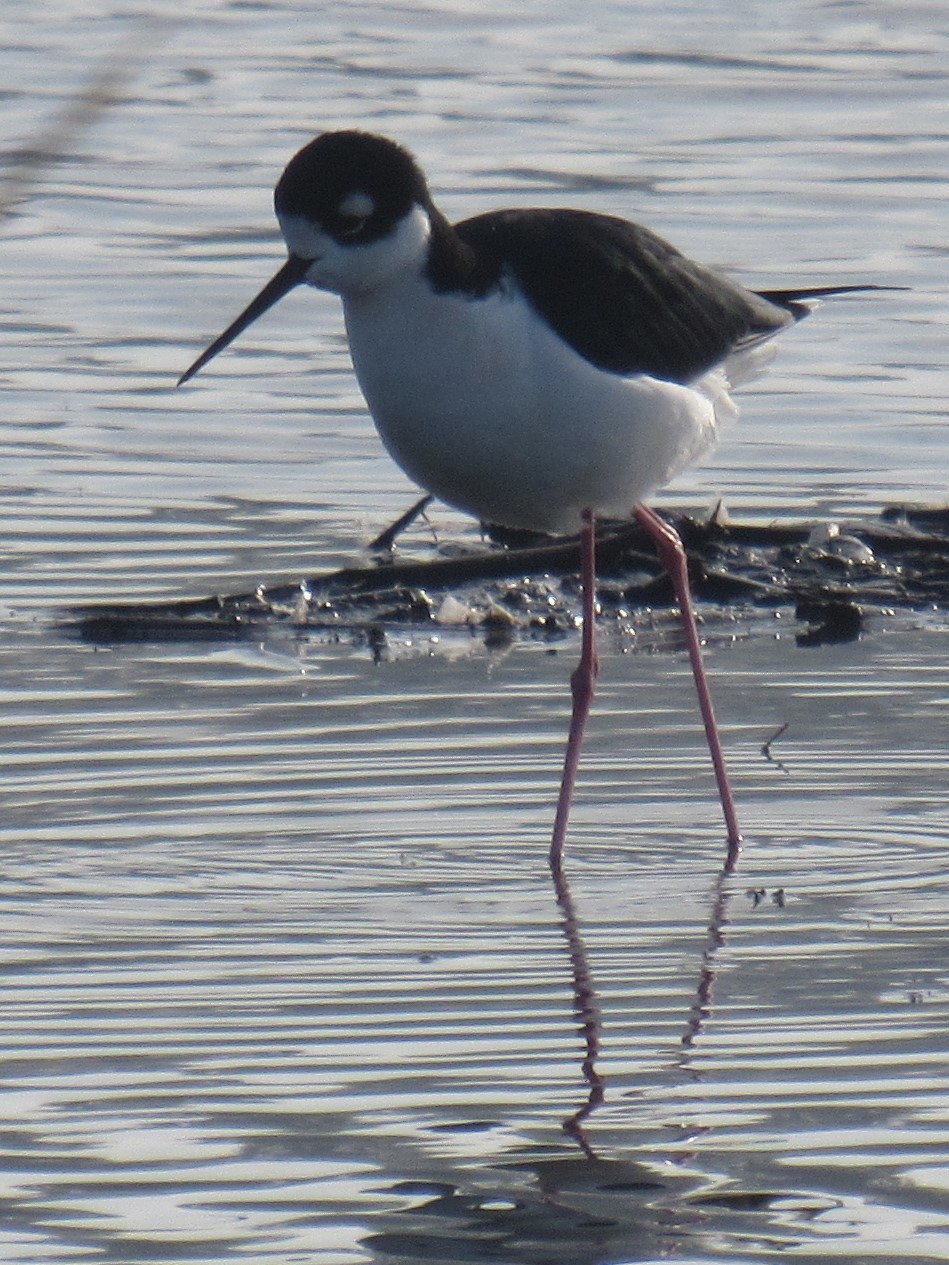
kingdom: Animalia
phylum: Chordata
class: Aves
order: Charadriiformes
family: Recurvirostridae
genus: Himantopus
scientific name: Himantopus mexicanus
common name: Black-necked stilt
